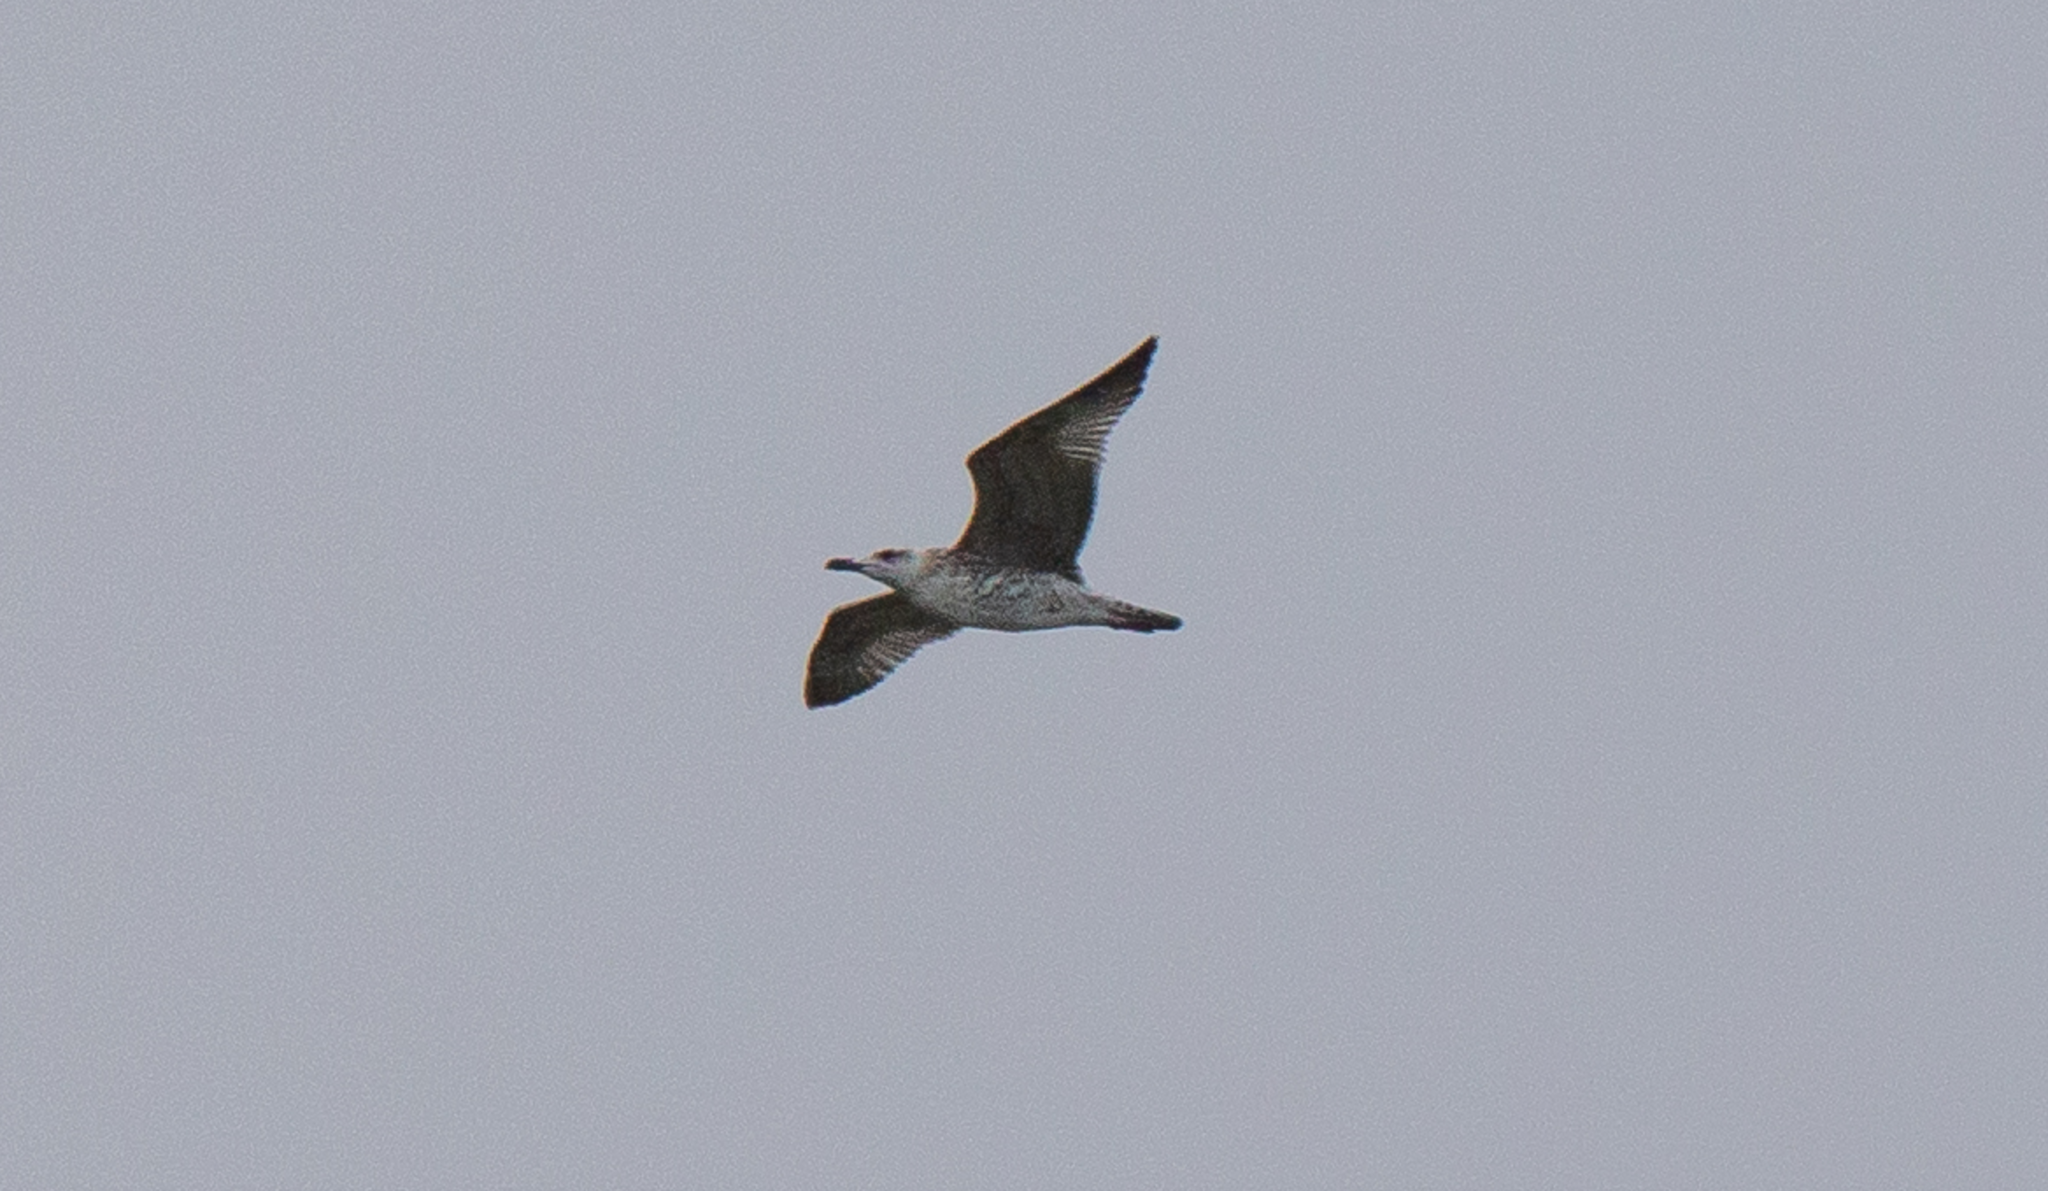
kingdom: Animalia
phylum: Chordata
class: Aves
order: Charadriiformes
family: Laridae
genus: Larus
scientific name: Larus michahellis
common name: Yellow-legged gull
